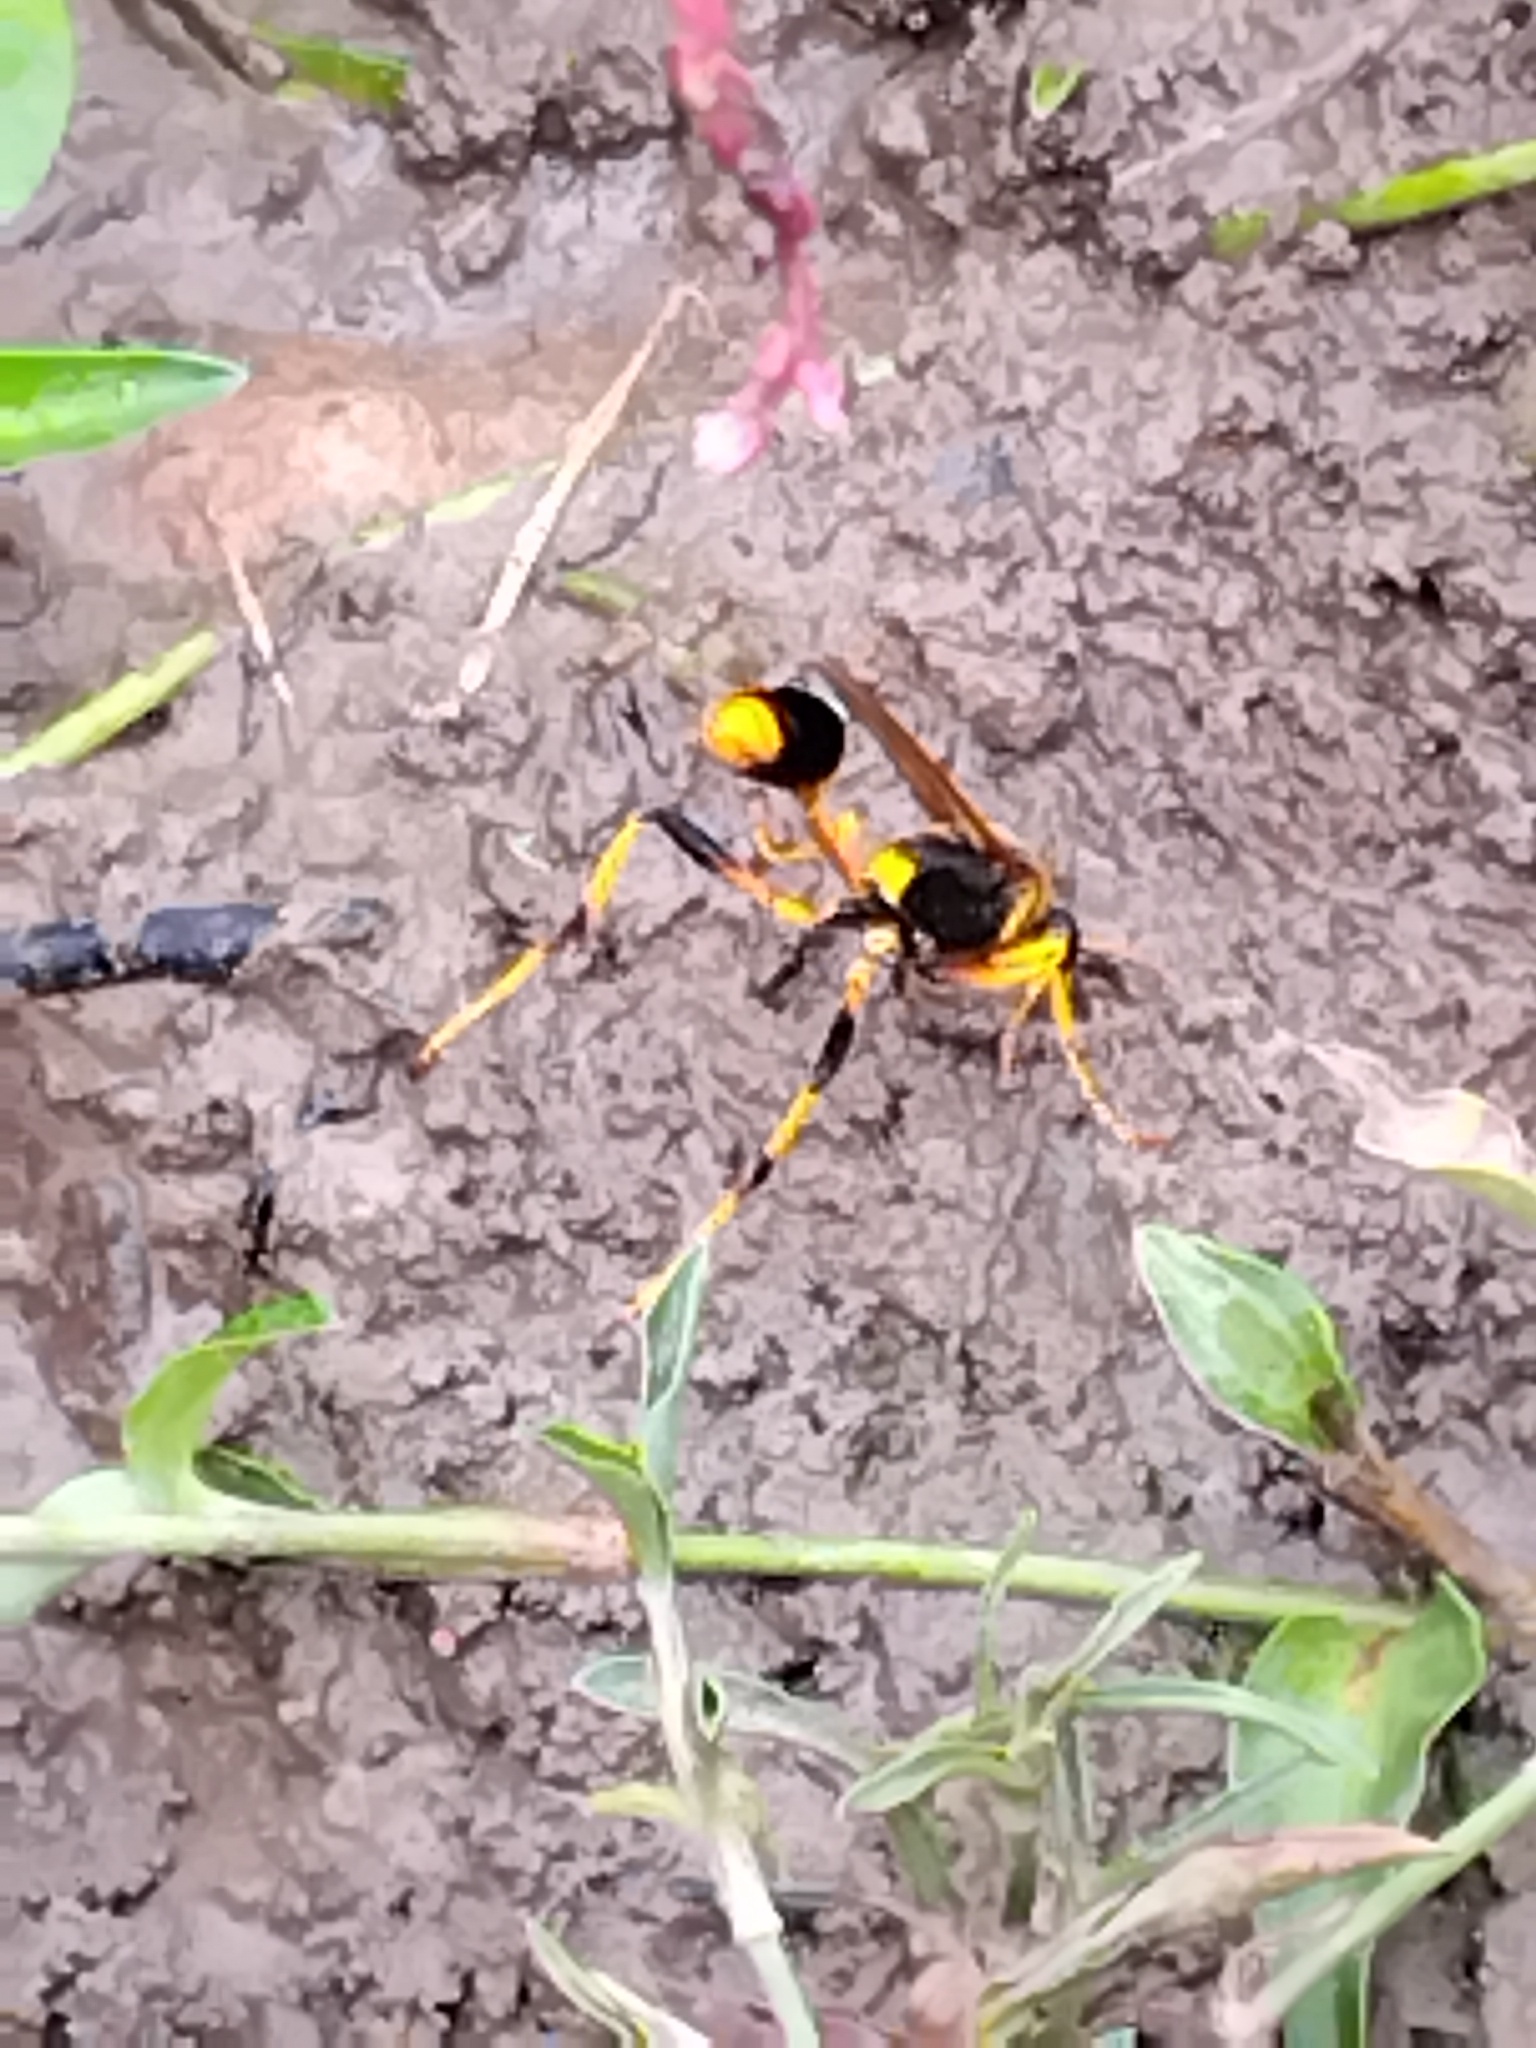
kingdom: Animalia
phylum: Arthropoda
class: Insecta
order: Hymenoptera
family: Sphecidae
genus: Sceliphron
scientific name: Sceliphron laetum
